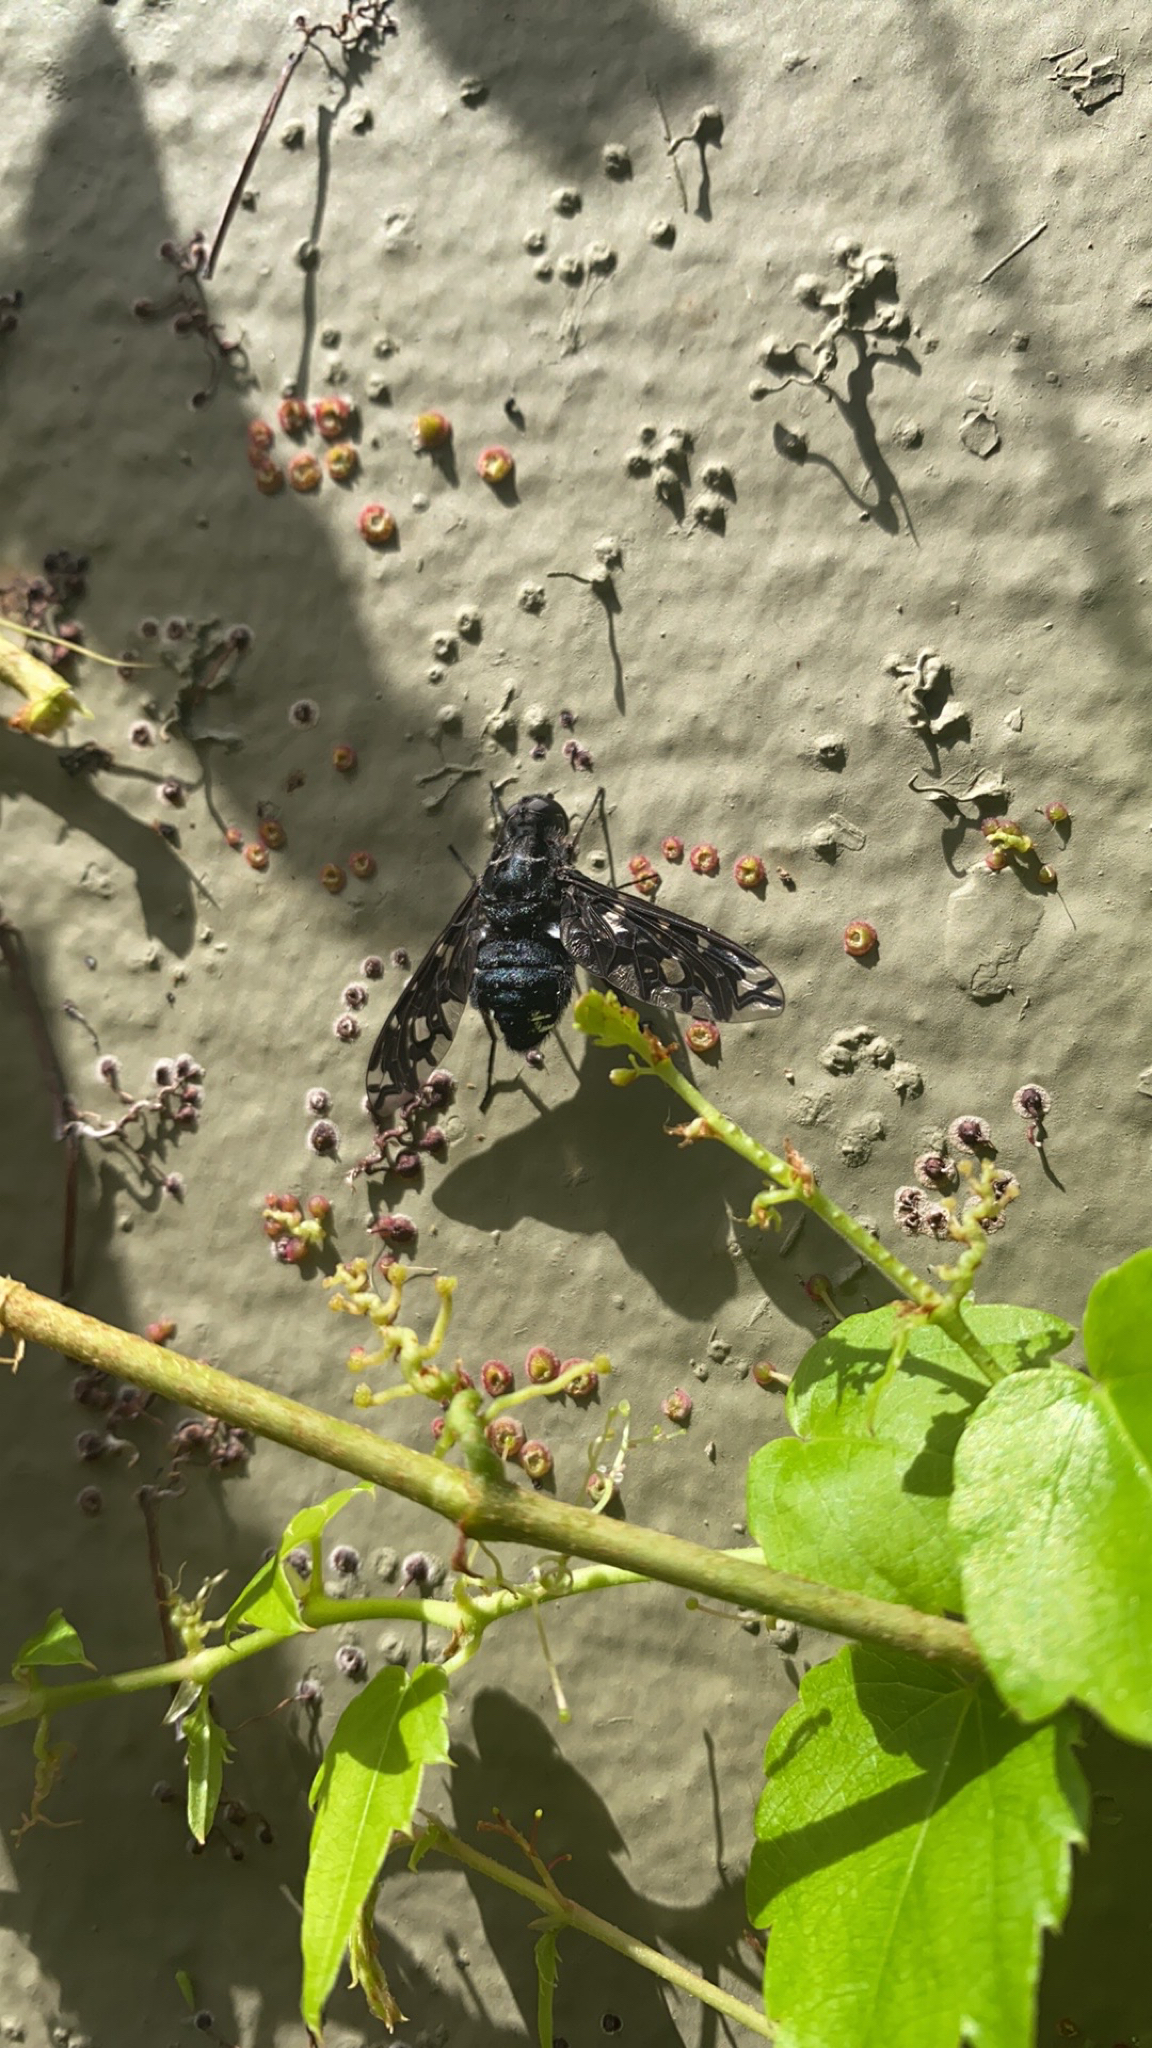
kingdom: Animalia
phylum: Arthropoda
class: Insecta
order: Diptera
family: Bombyliidae
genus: Xenox
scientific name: Xenox tigrinus
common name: Tiger bee fly
